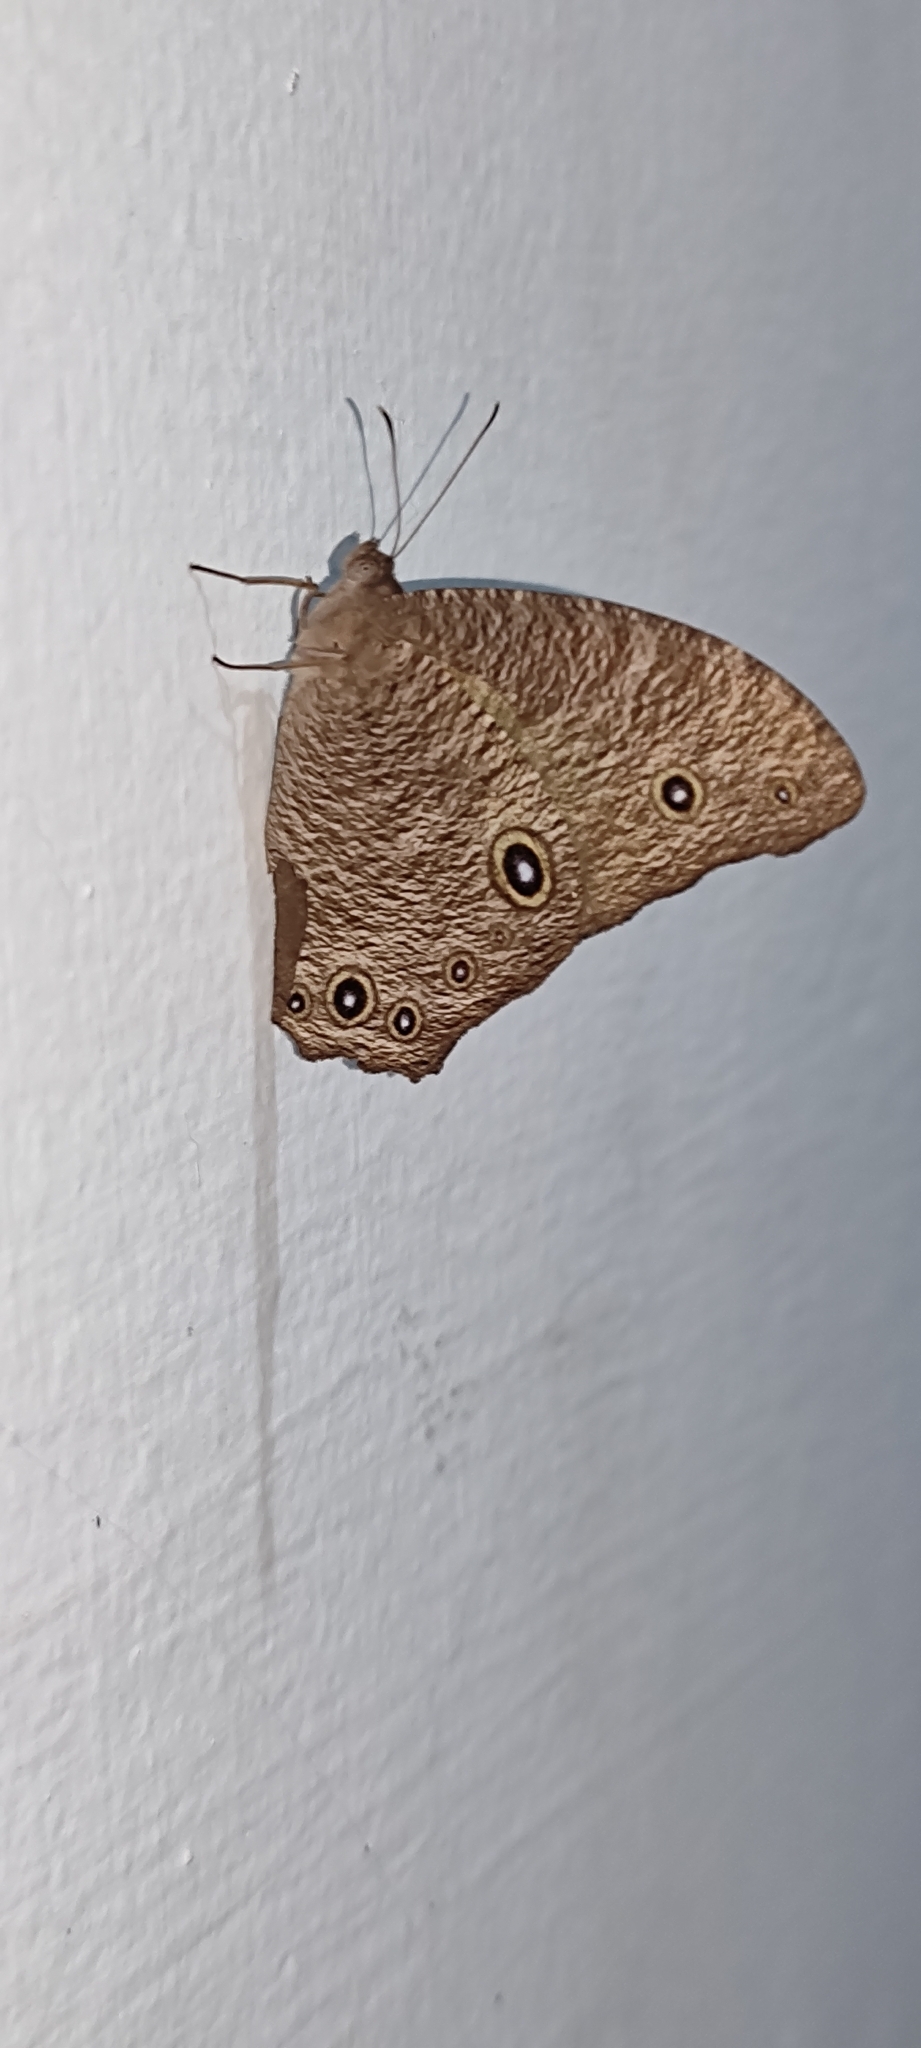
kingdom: Animalia
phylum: Arthropoda
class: Insecta
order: Lepidoptera
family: Nymphalidae
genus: Melanitis
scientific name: Melanitis leda
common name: Twilight brown
